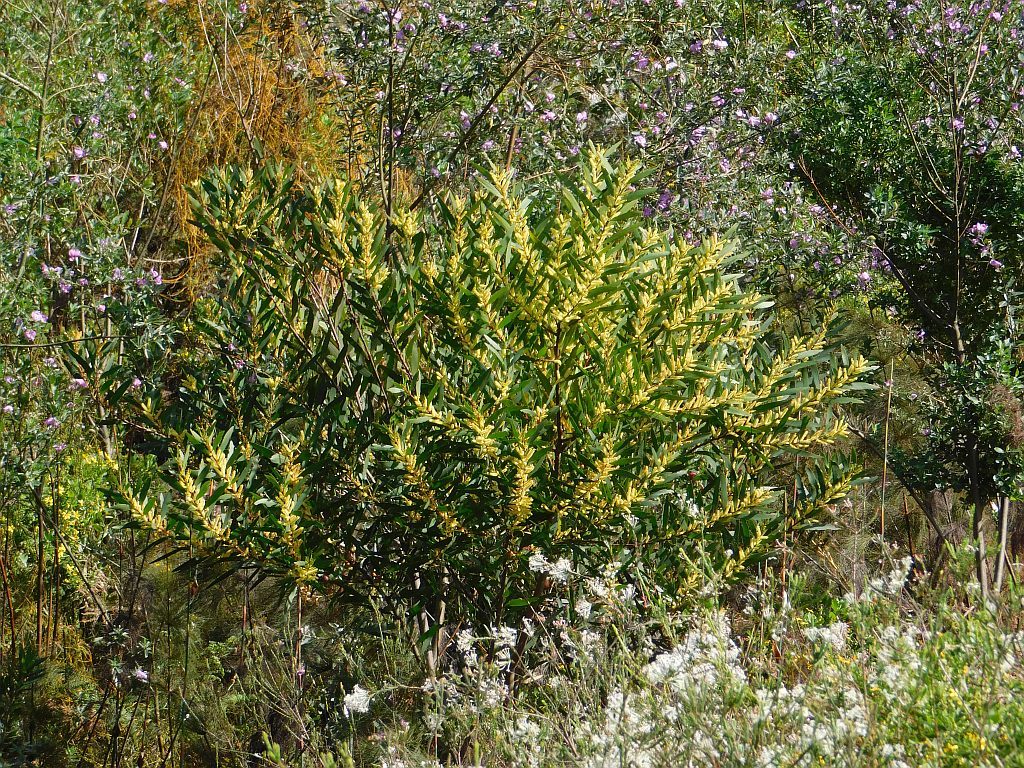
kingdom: Plantae
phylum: Tracheophyta
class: Magnoliopsida
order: Fabales
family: Fabaceae
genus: Acacia
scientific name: Acacia longifolia
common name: Sydney golden wattle
